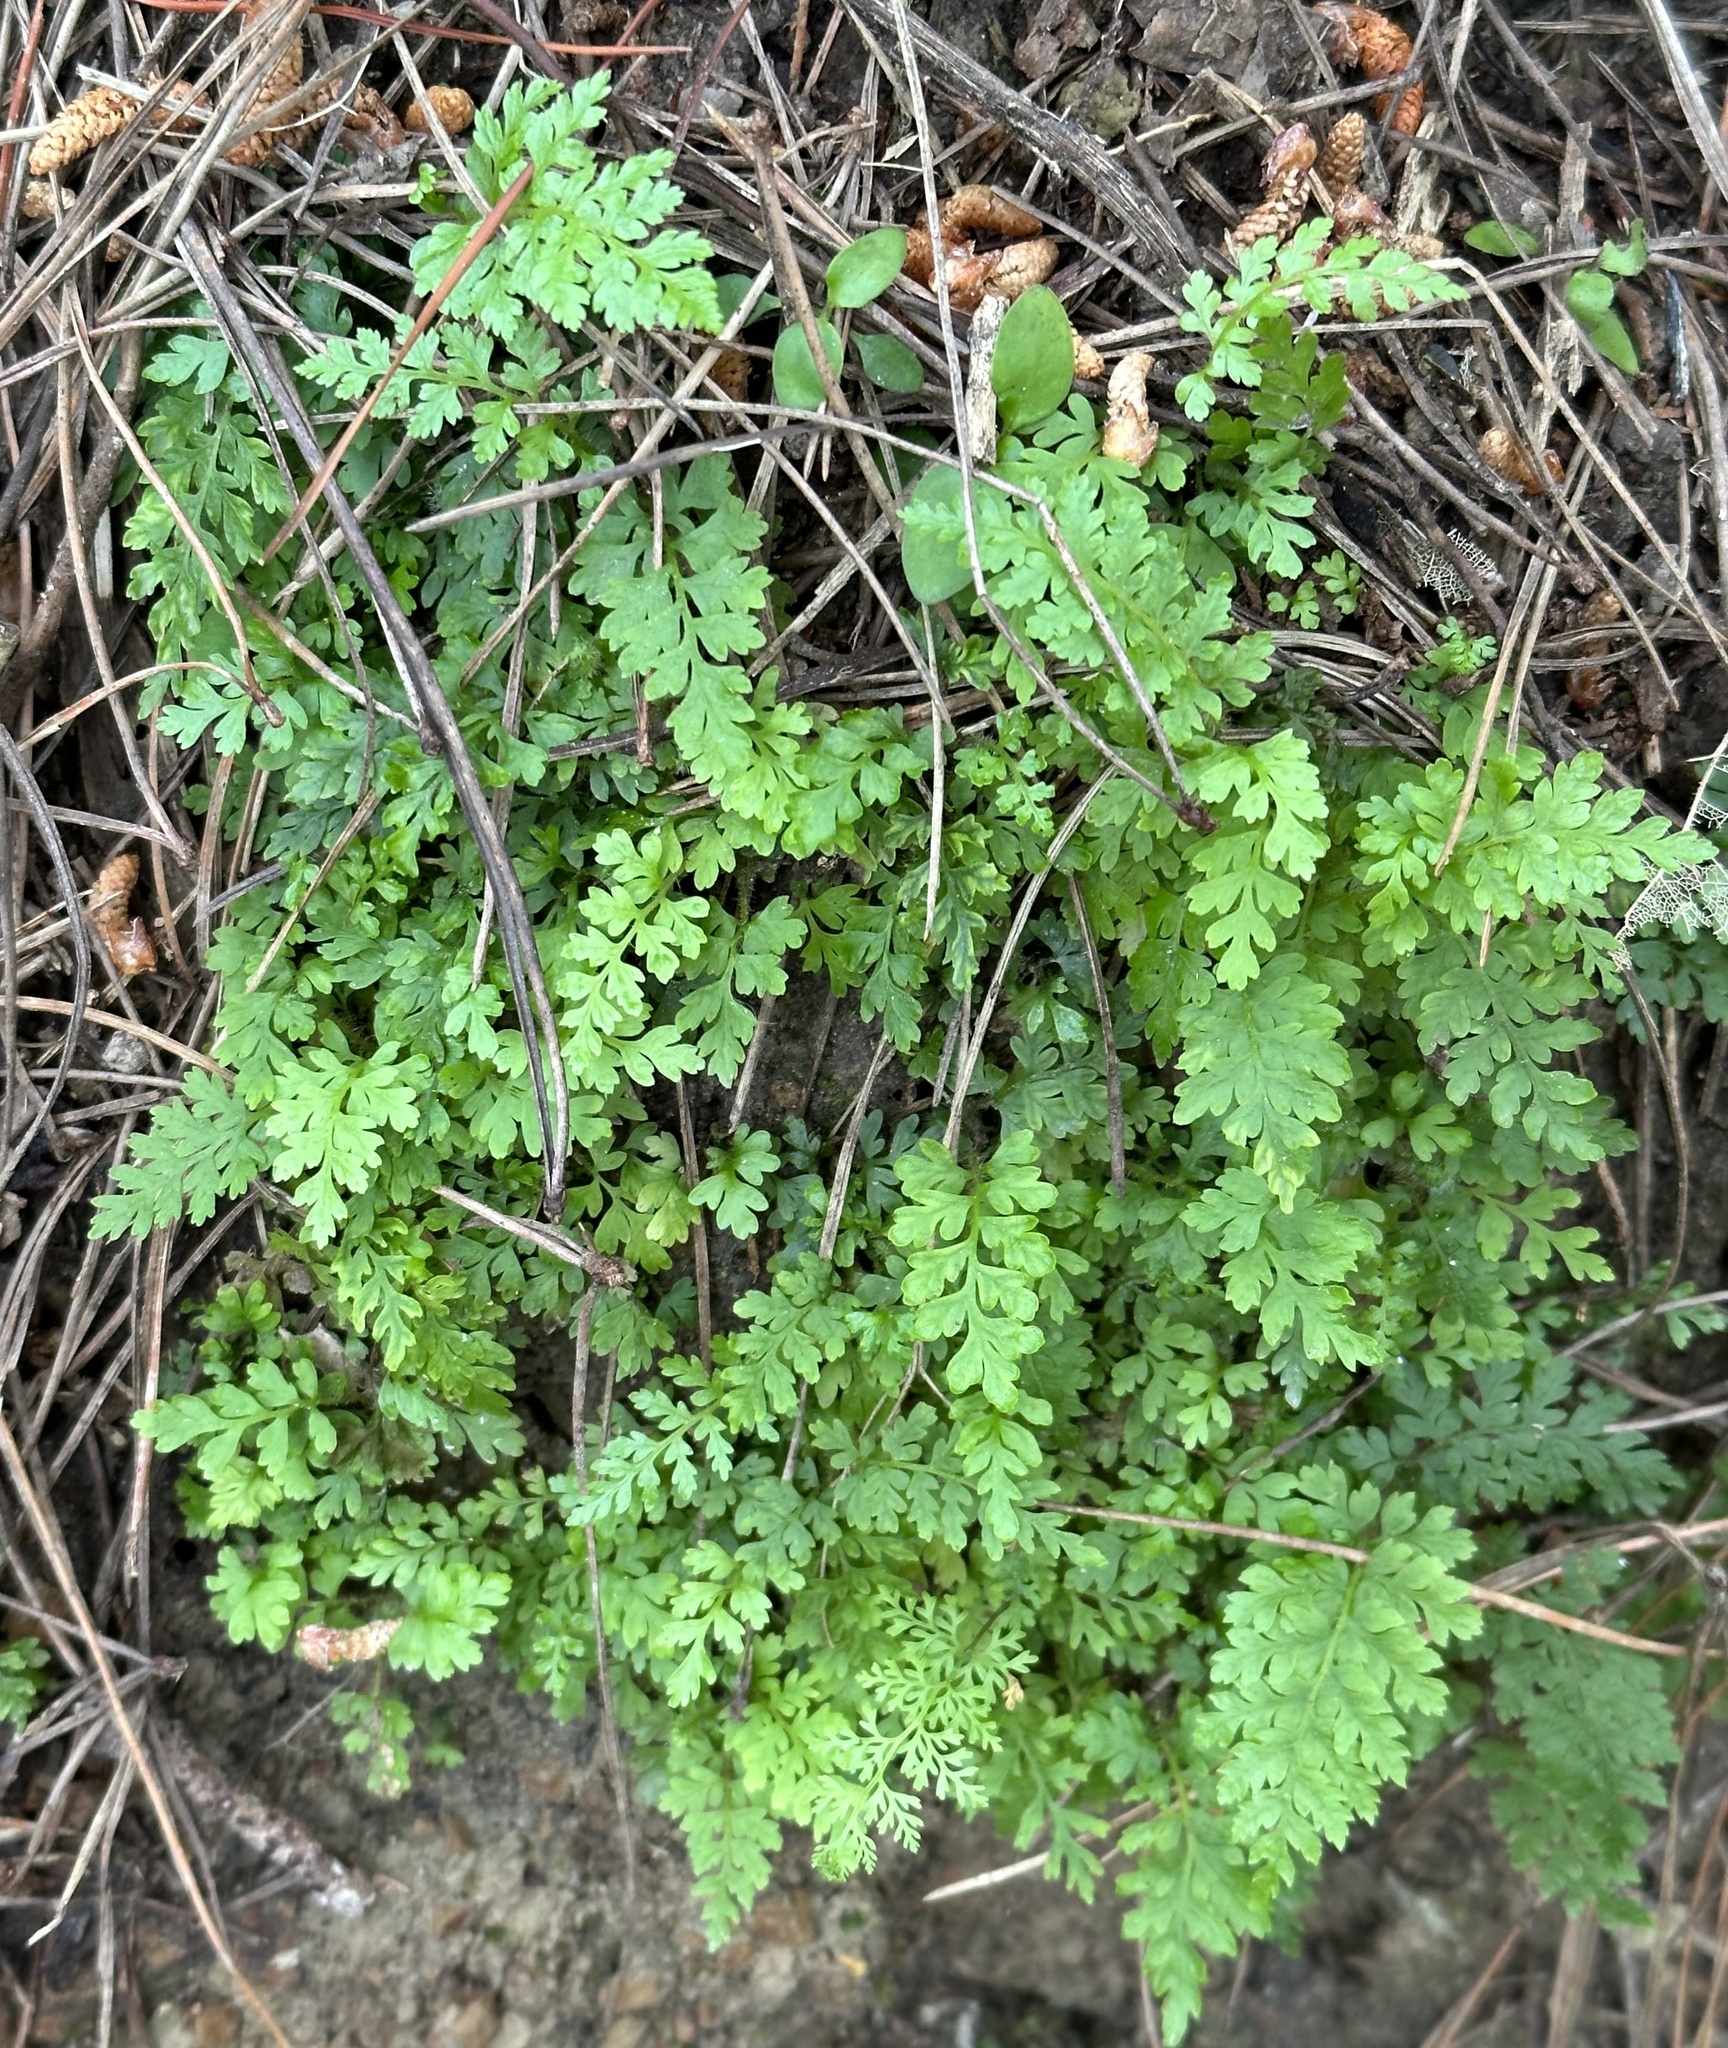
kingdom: Plantae
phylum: Tracheophyta
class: Polypodiopsida
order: Cyatheales
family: Cyatheaceae
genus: Sphaeropteris
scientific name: Sphaeropteris medullaris
